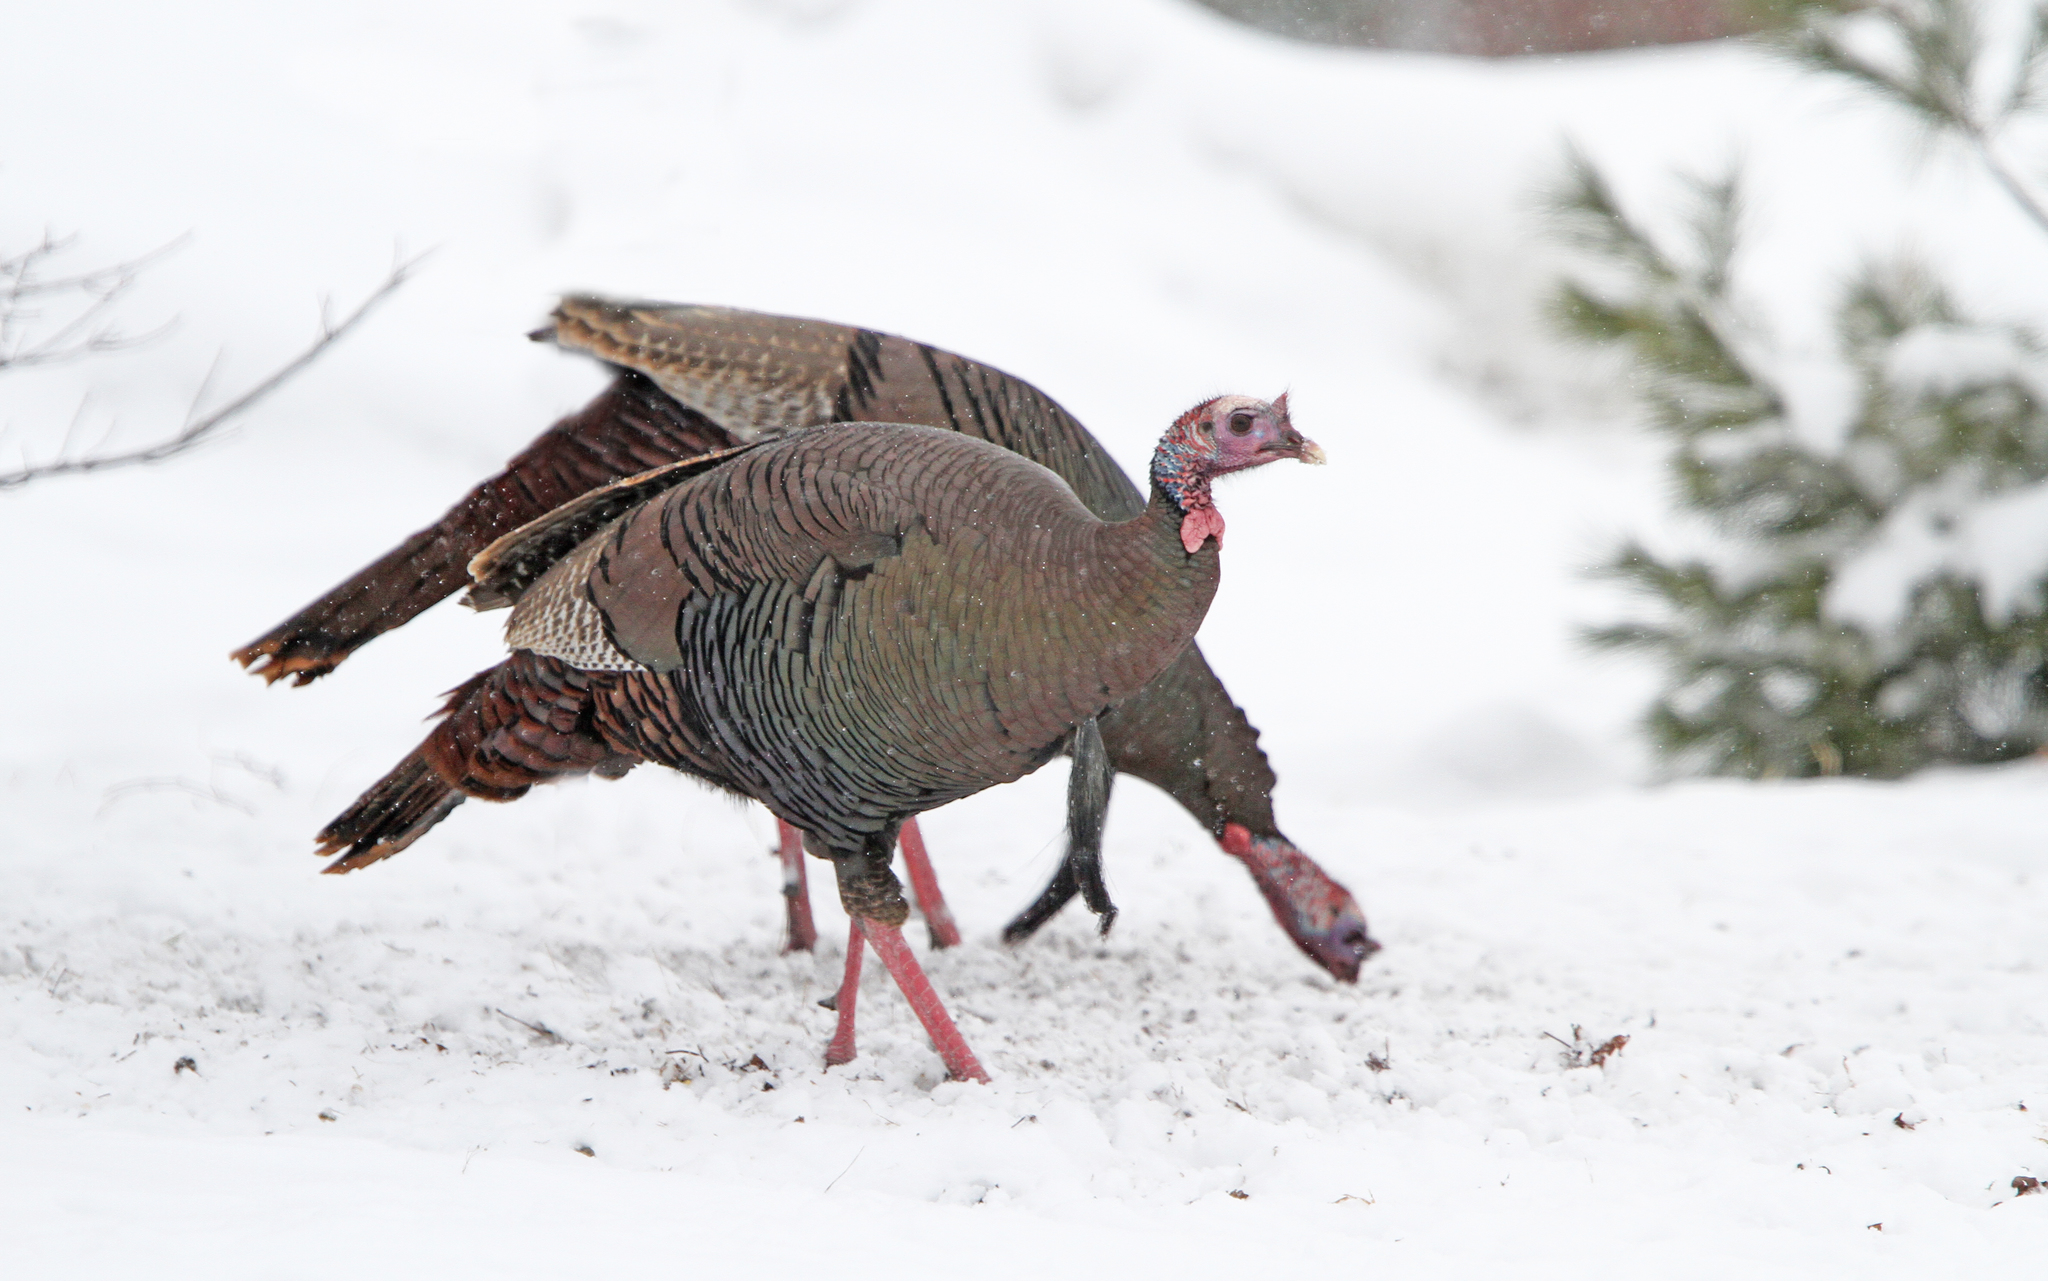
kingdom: Animalia
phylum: Chordata
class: Aves
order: Galliformes
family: Phasianidae
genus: Meleagris
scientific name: Meleagris gallopavo
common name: Wild turkey
